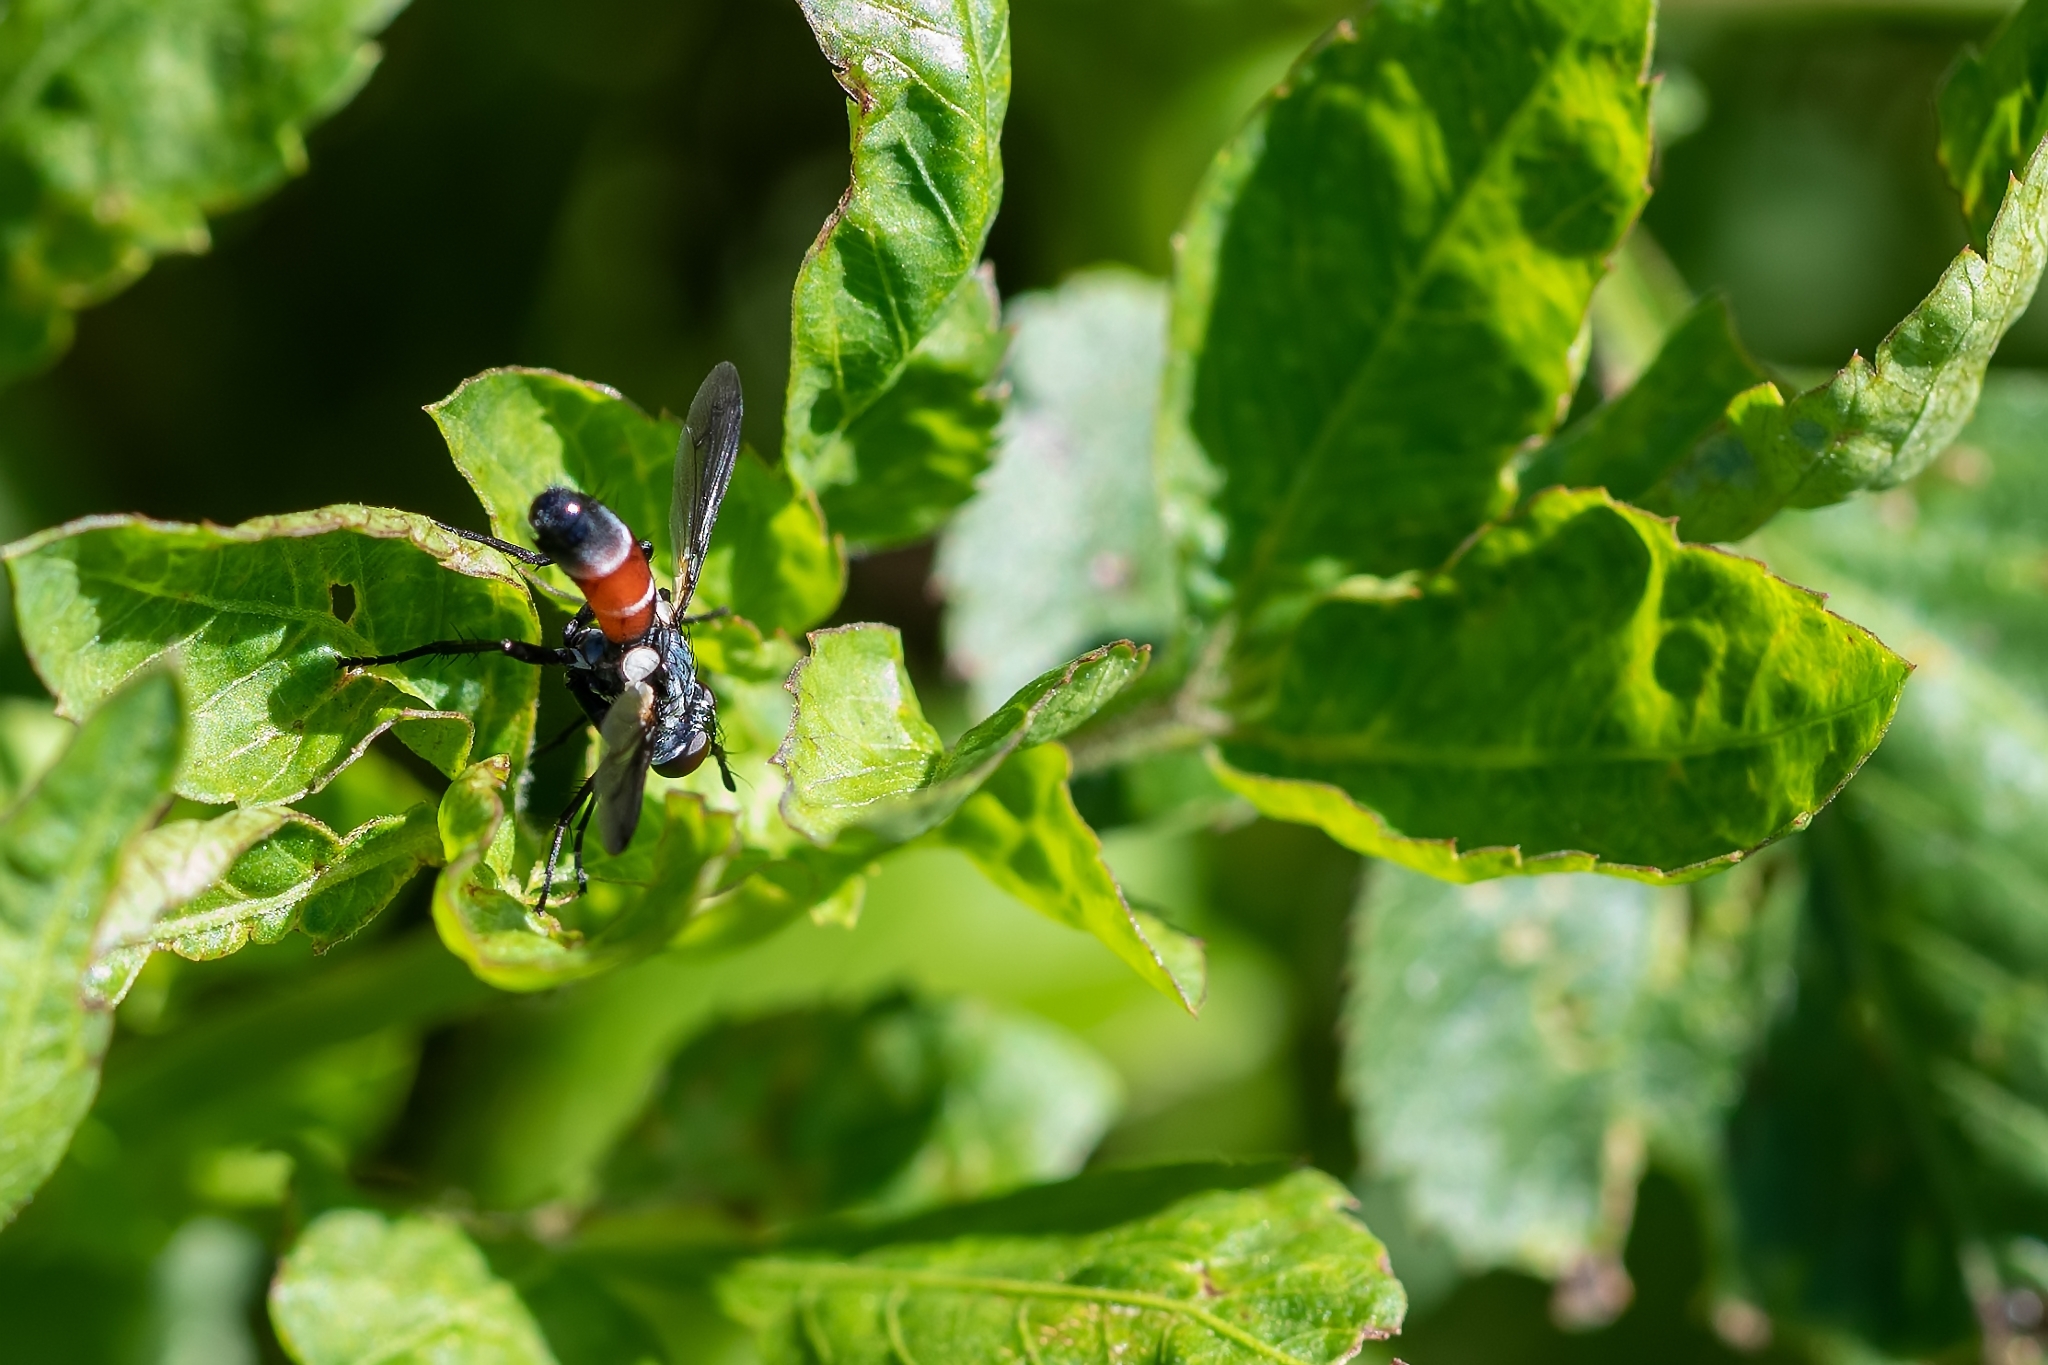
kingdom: Animalia
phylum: Arthropoda
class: Insecta
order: Diptera
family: Tachinidae
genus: Cylindromyia
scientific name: Cylindromyia
